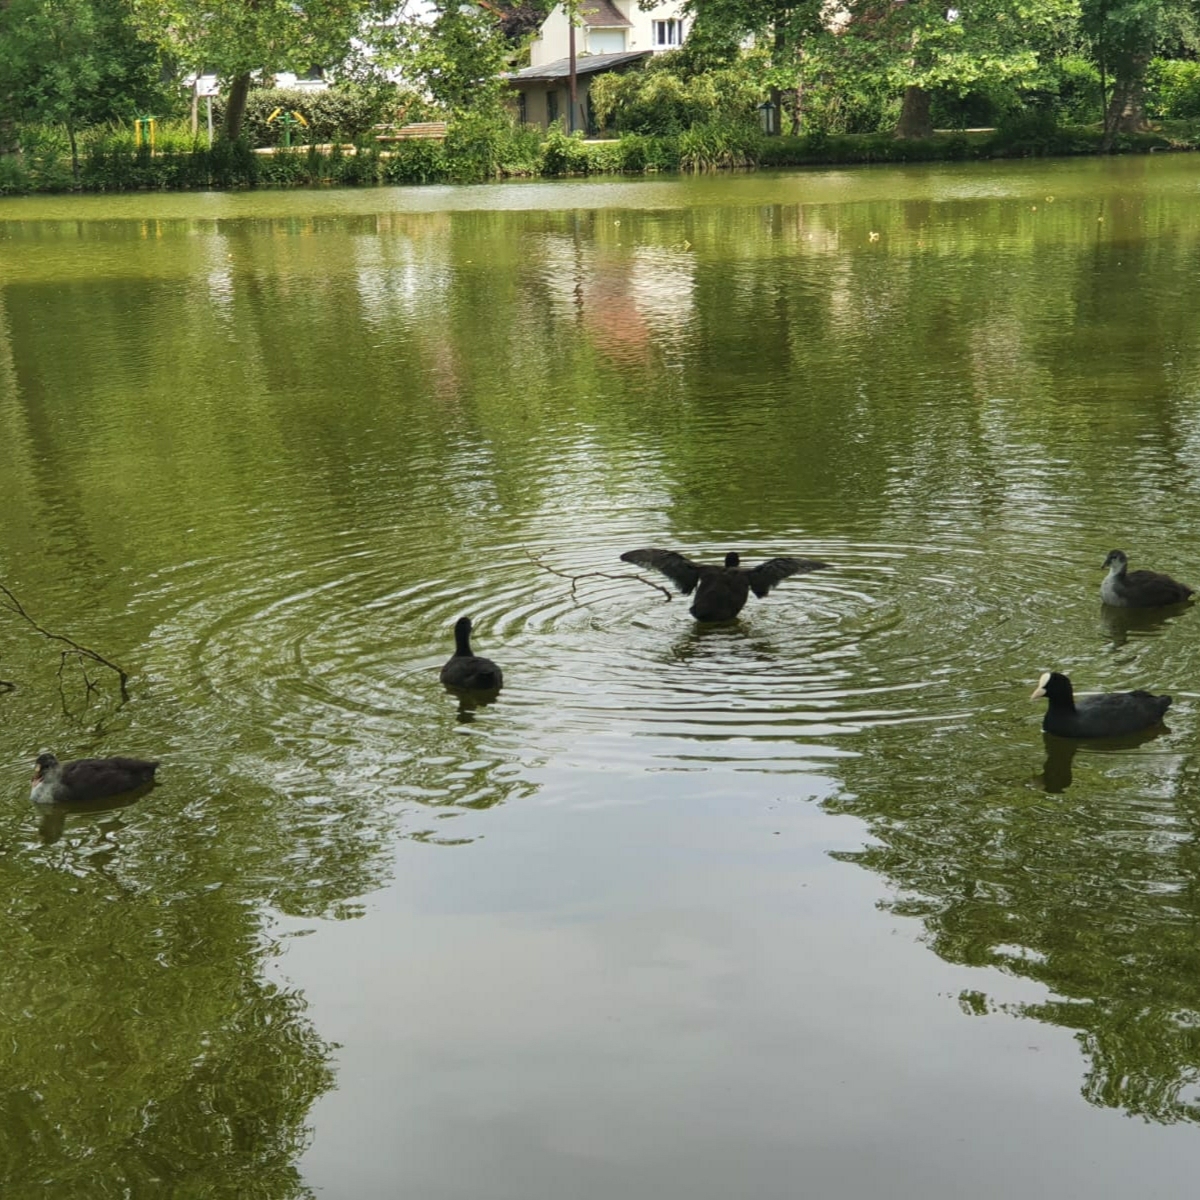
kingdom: Animalia
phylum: Chordata
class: Aves
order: Gruiformes
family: Rallidae
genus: Fulica
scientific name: Fulica atra
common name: Eurasian coot
